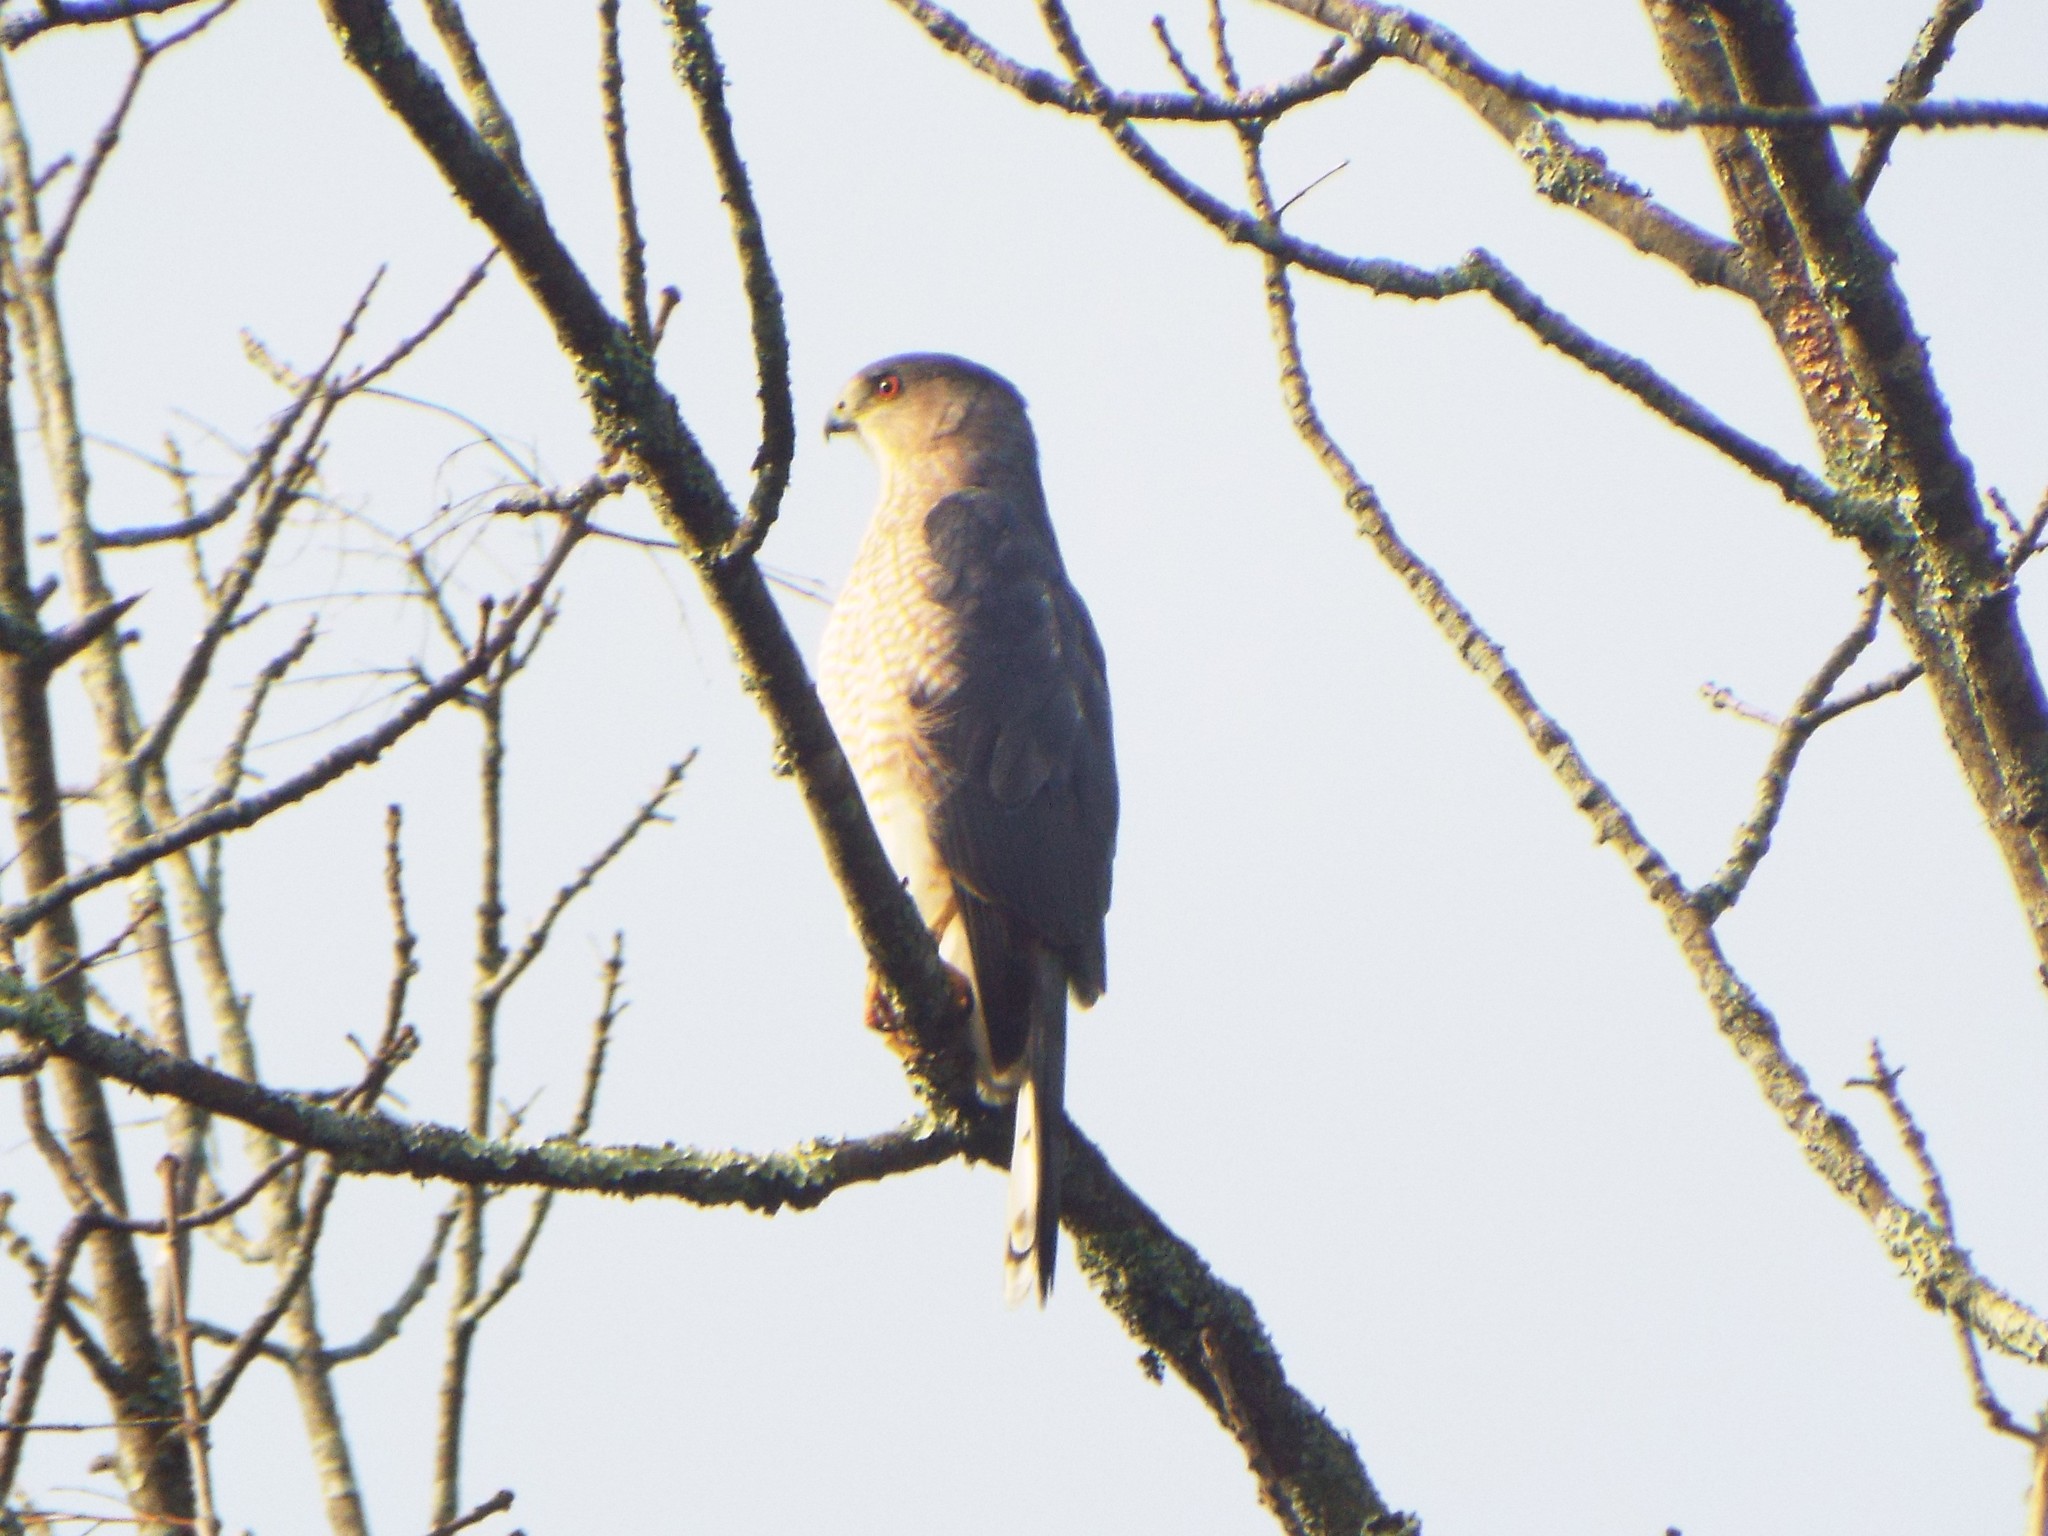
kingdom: Animalia
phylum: Chordata
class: Aves
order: Accipitriformes
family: Accipitridae
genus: Accipiter
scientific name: Accipiter cooperii
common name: Cooper's hawk
